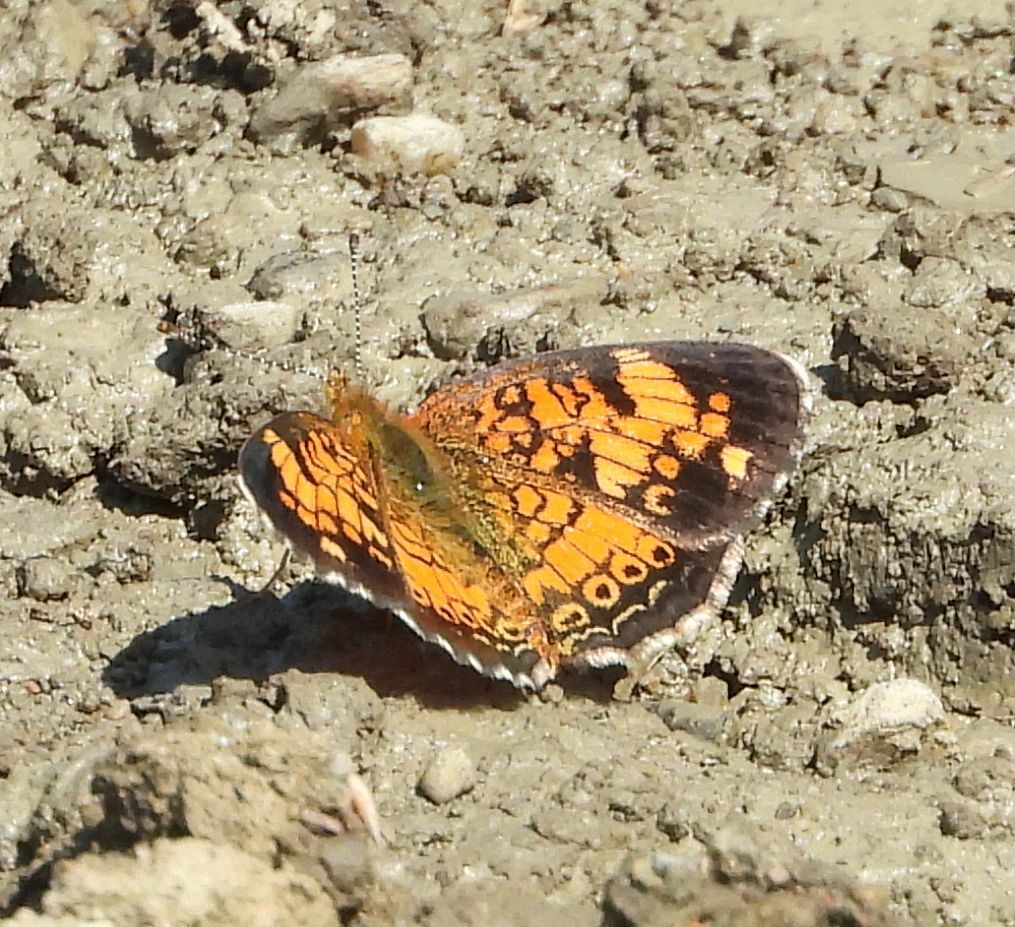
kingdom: Animalia
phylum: Arthropoda
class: Insecta
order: Lepidoptera
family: Nymphalidae
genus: Phyciodes
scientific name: Phyciodes tharos
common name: Pearl crescent
